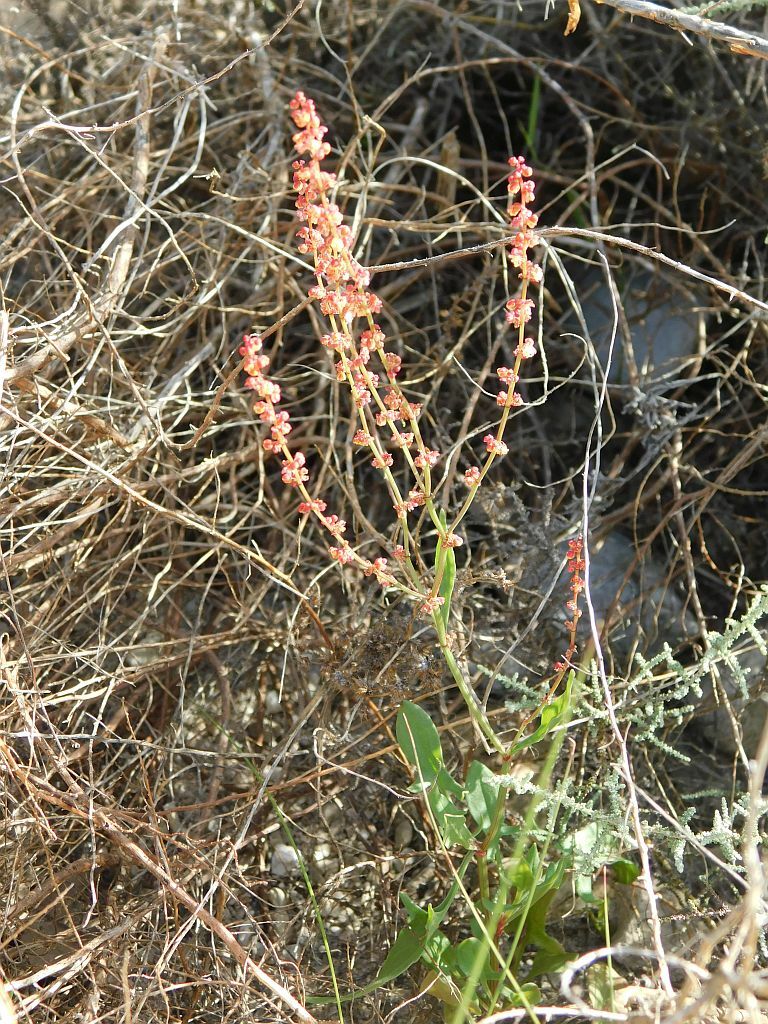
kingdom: Plantae
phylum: Tracheophyta
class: Magnoliopsida
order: Caryophyllales
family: Polygonaceae
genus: Rumex
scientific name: Rumex acetosella
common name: Common sheep sorrel
